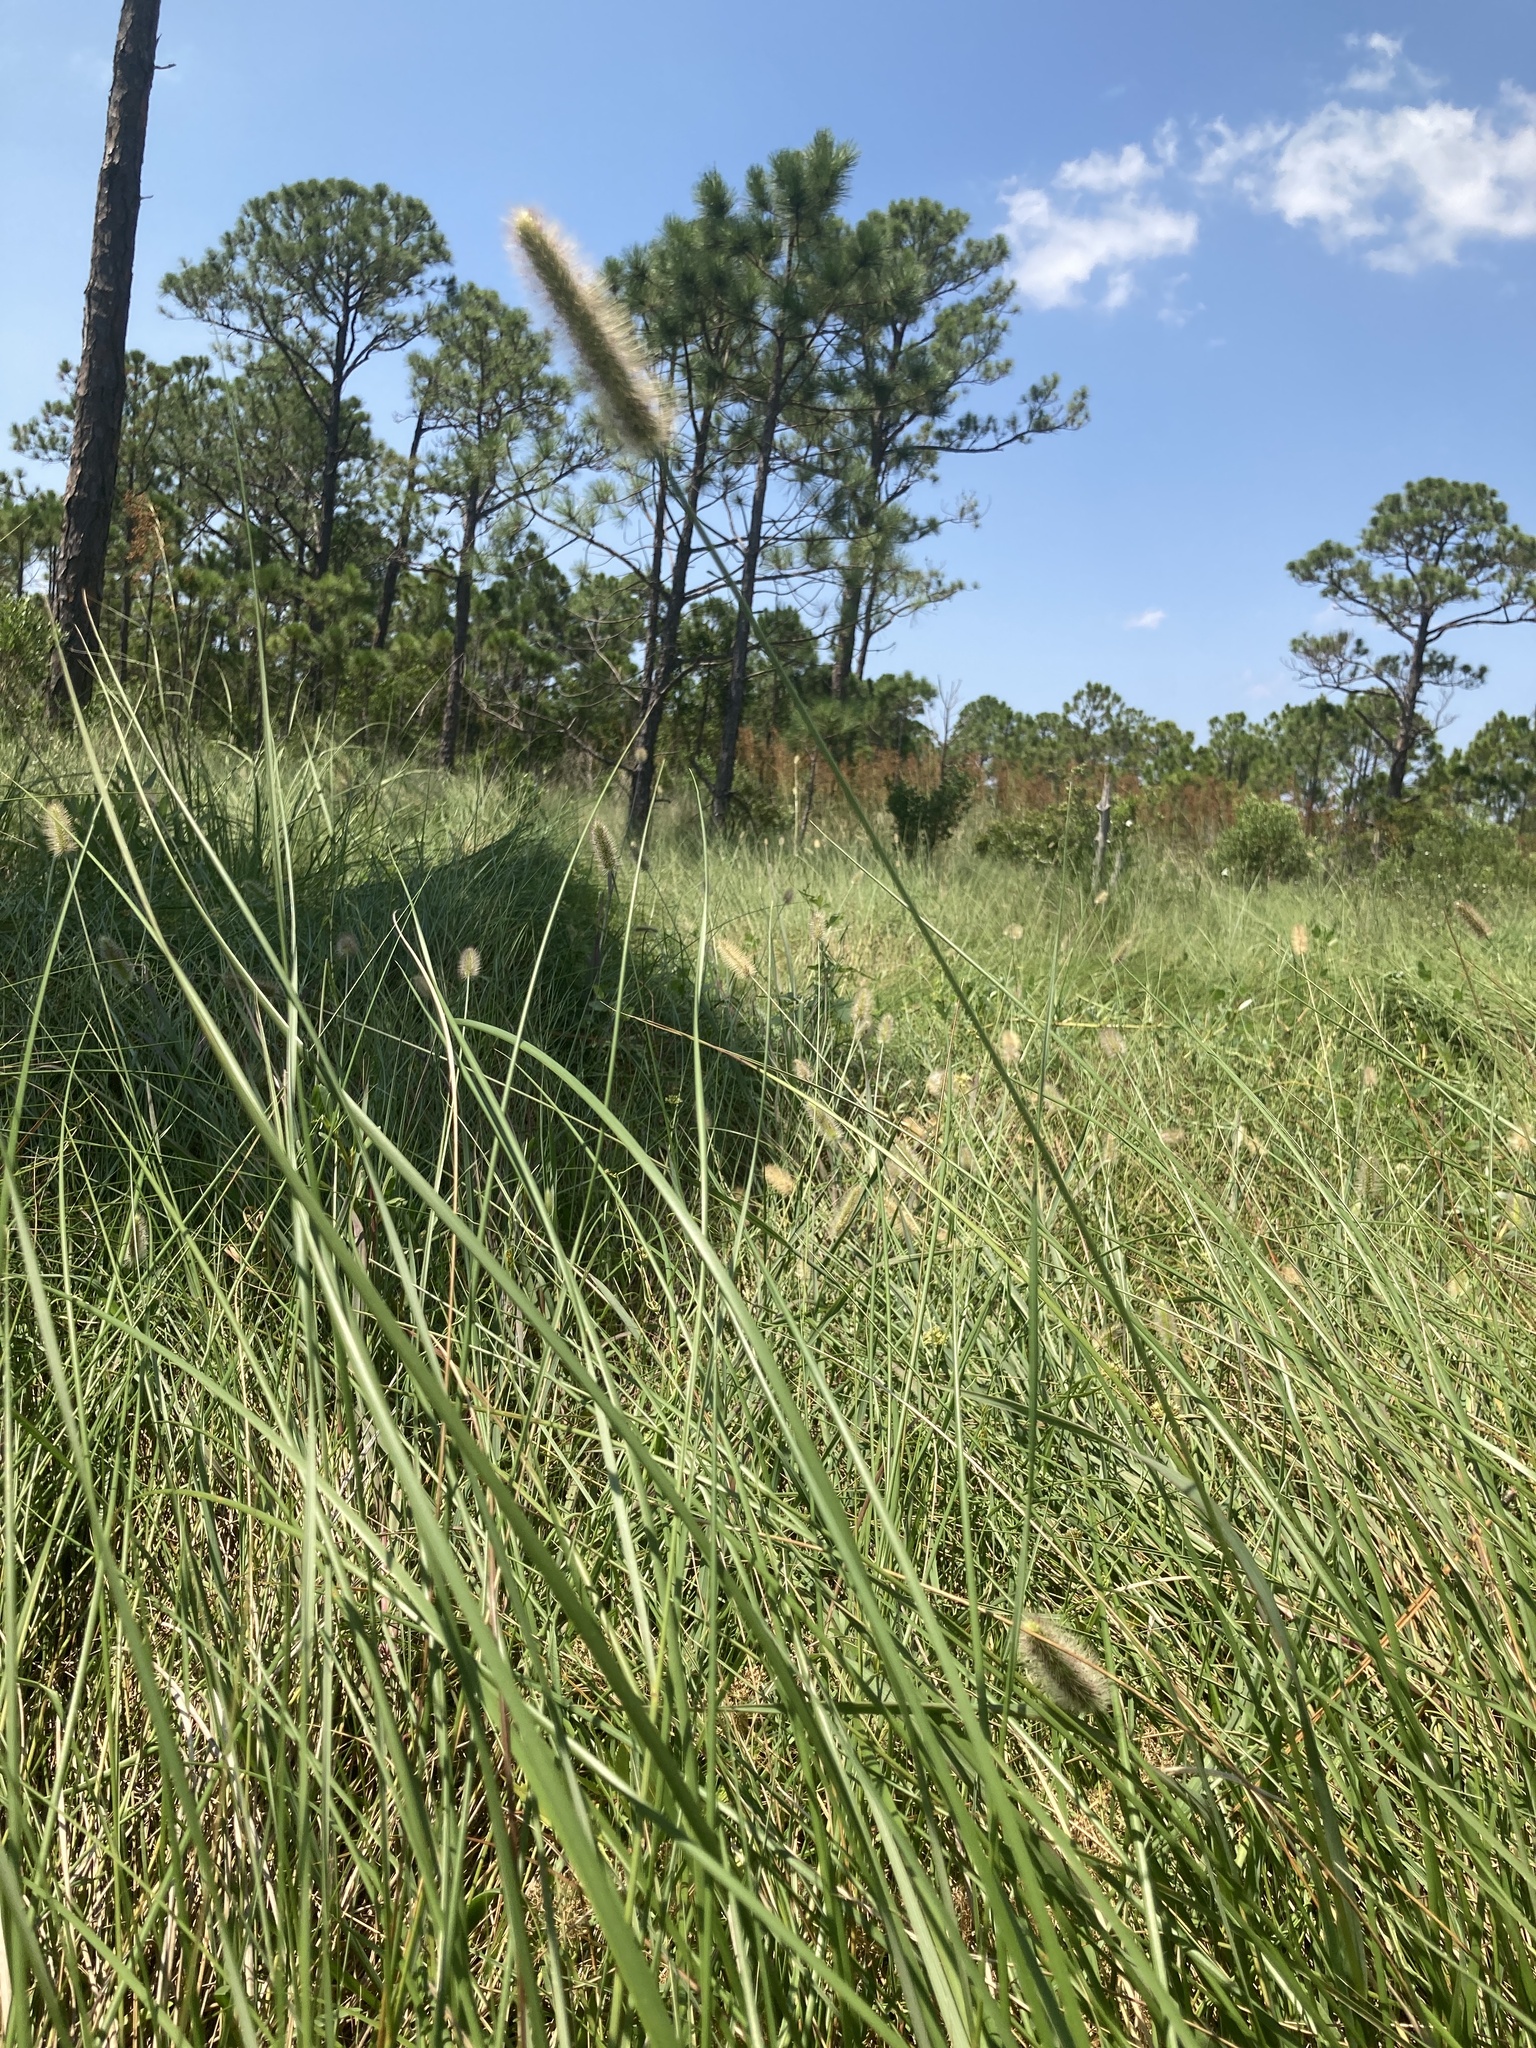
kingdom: Plantae
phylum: Tracheophyta
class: Liliopsida
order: Poales
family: Poaceae
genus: Setaria
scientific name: Setaria parviflora
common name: Knotroot bristle-grass
